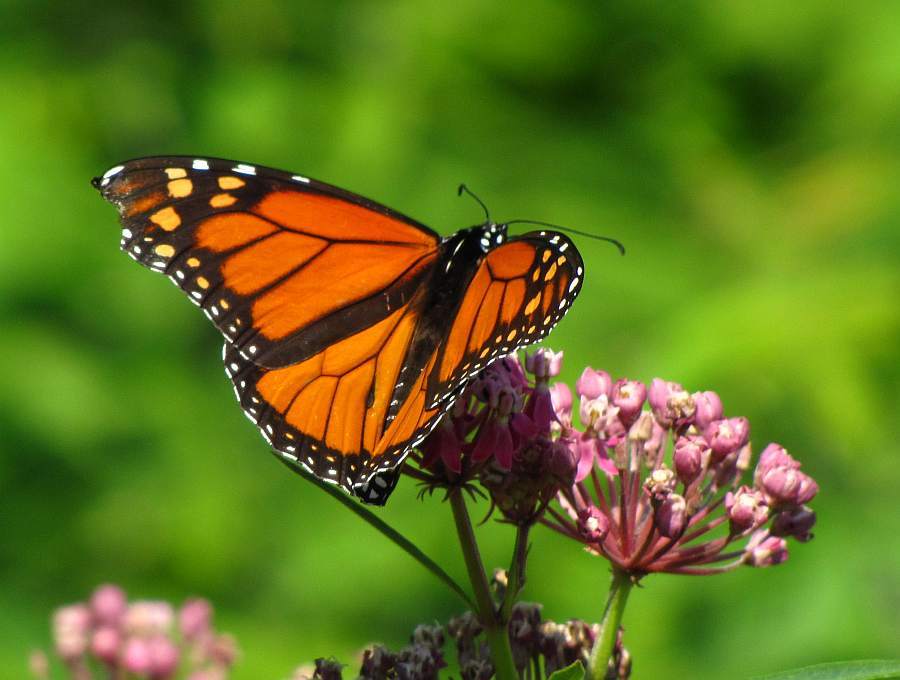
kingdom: Animalia
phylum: Arthropoda
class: Insecta
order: Lepidoptera
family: Nymphalidae
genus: Danaus
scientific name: Danaus plexippus
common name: Monarch
